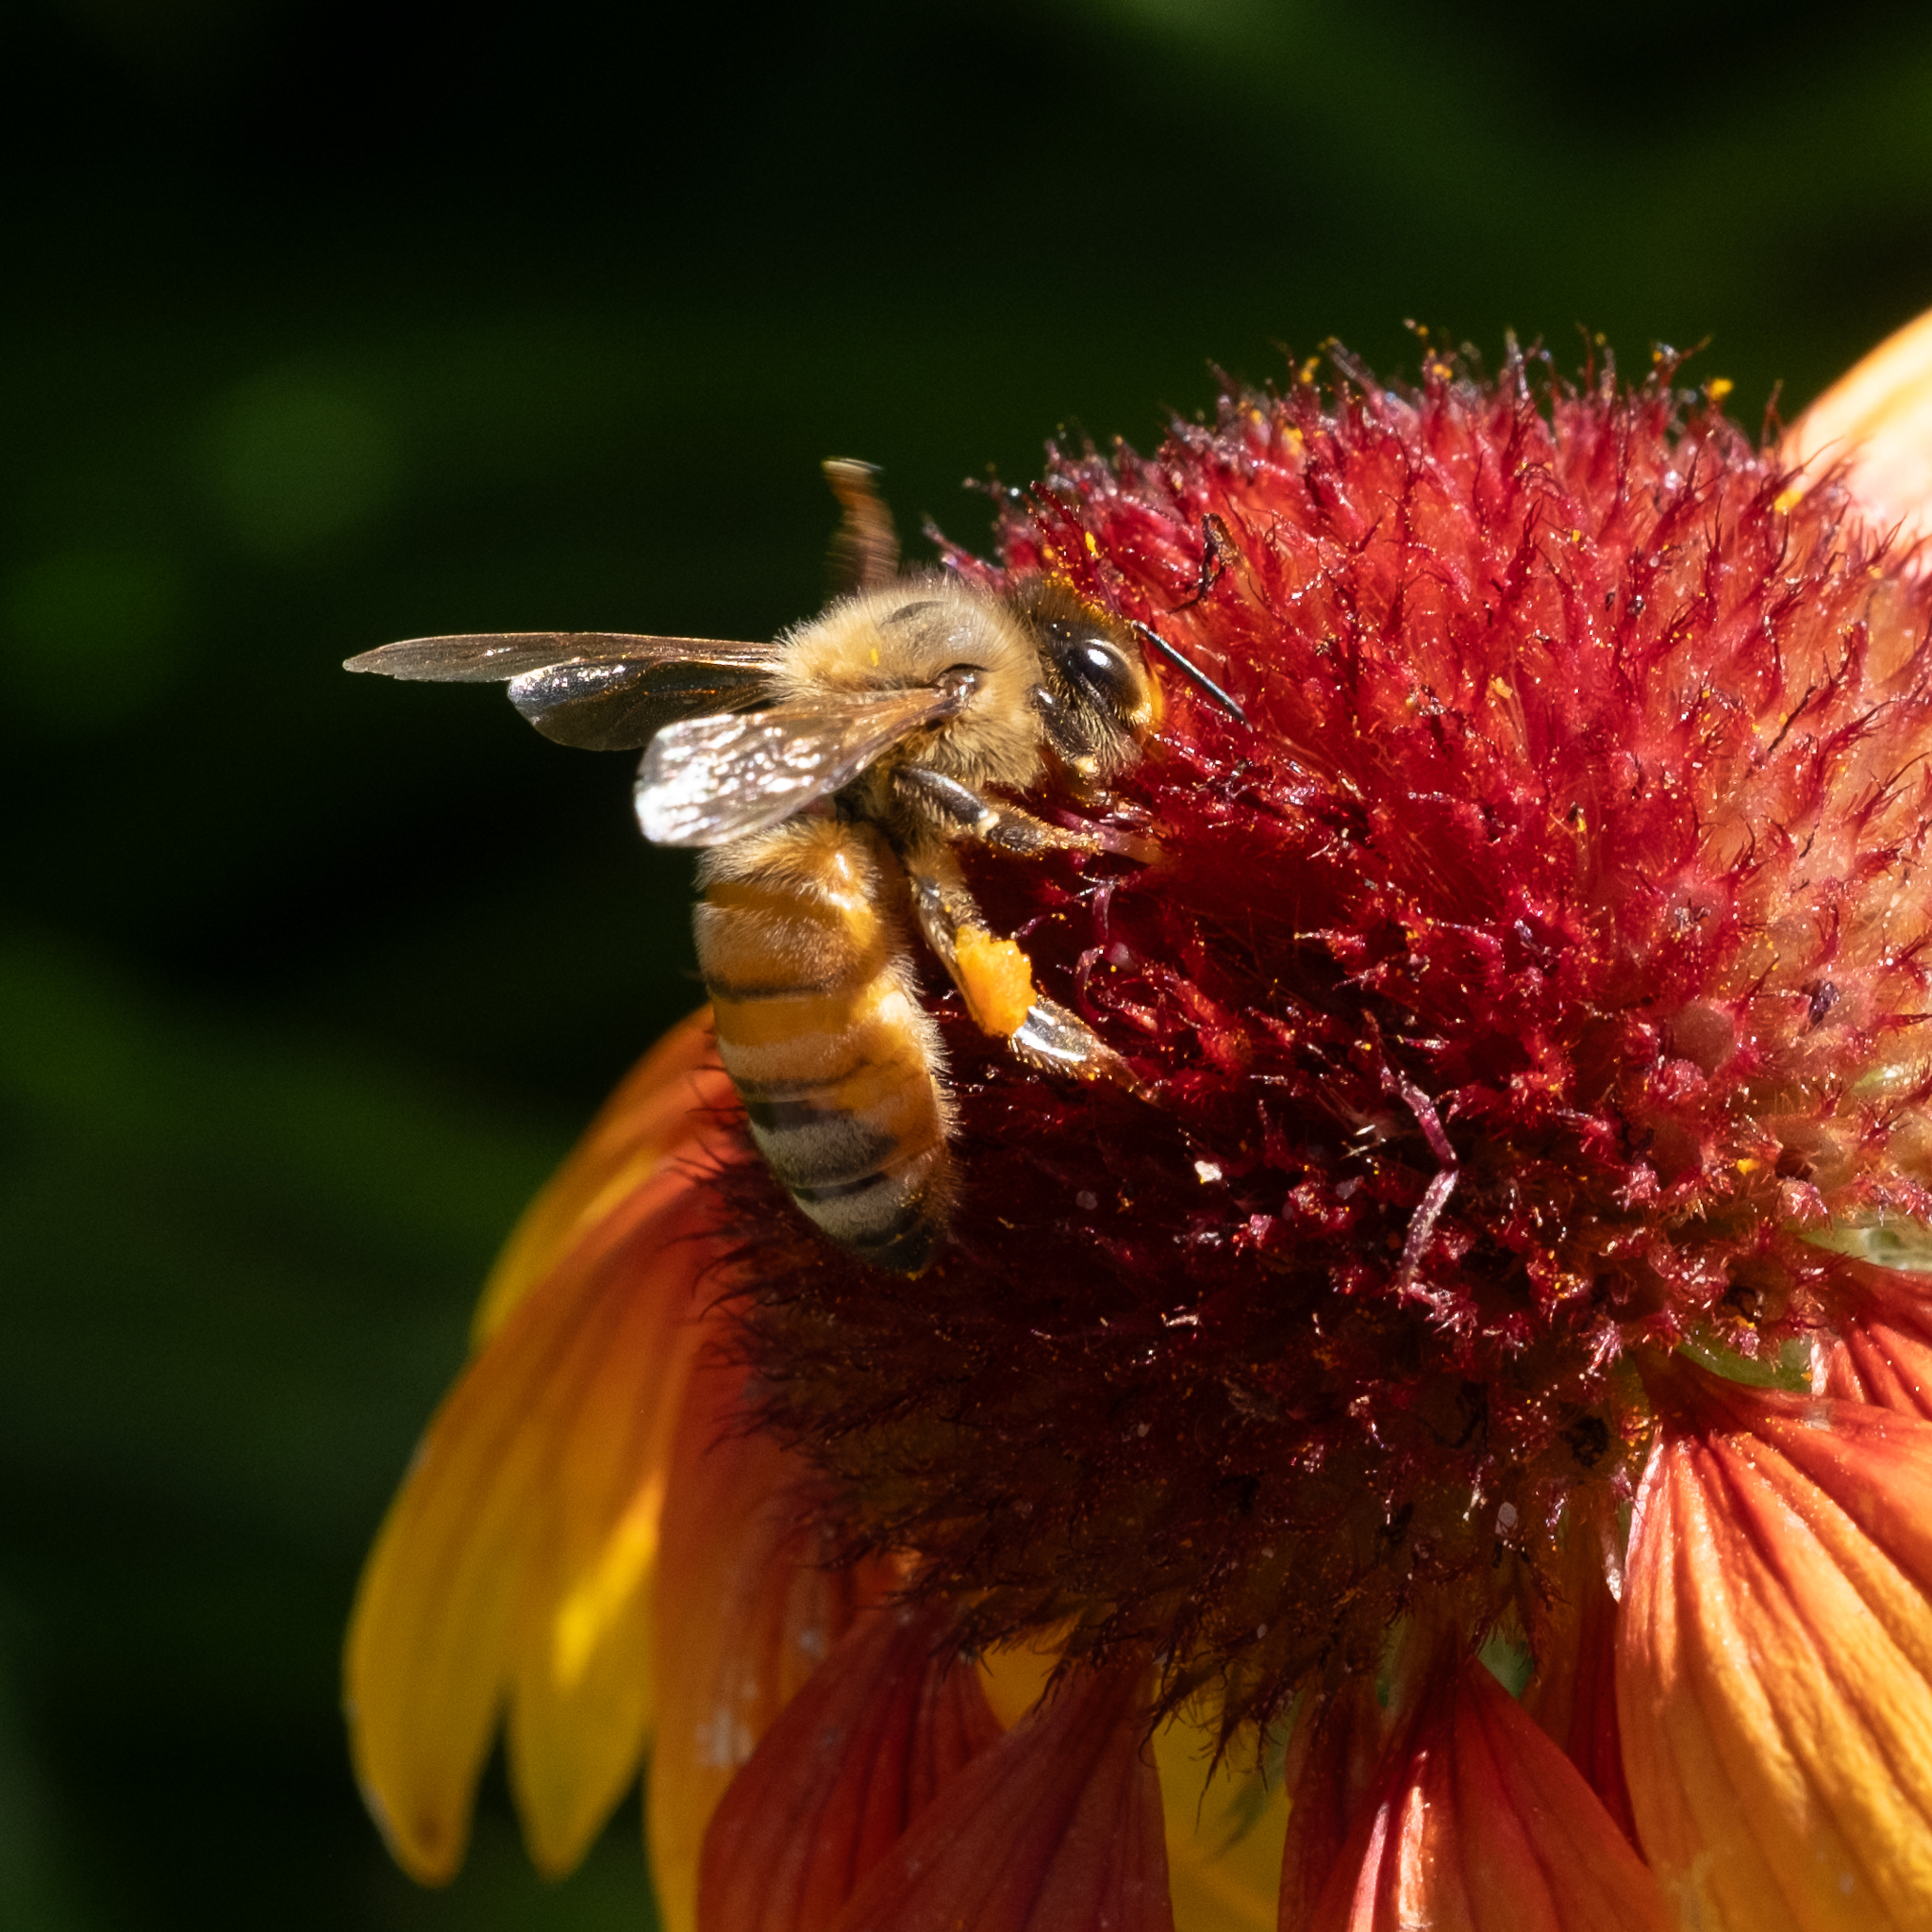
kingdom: Animalia
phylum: Arthropoda
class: Insecta
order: Hymenoptera
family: Apidae
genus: Apis
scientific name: Apis mellifera
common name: Honey bee
